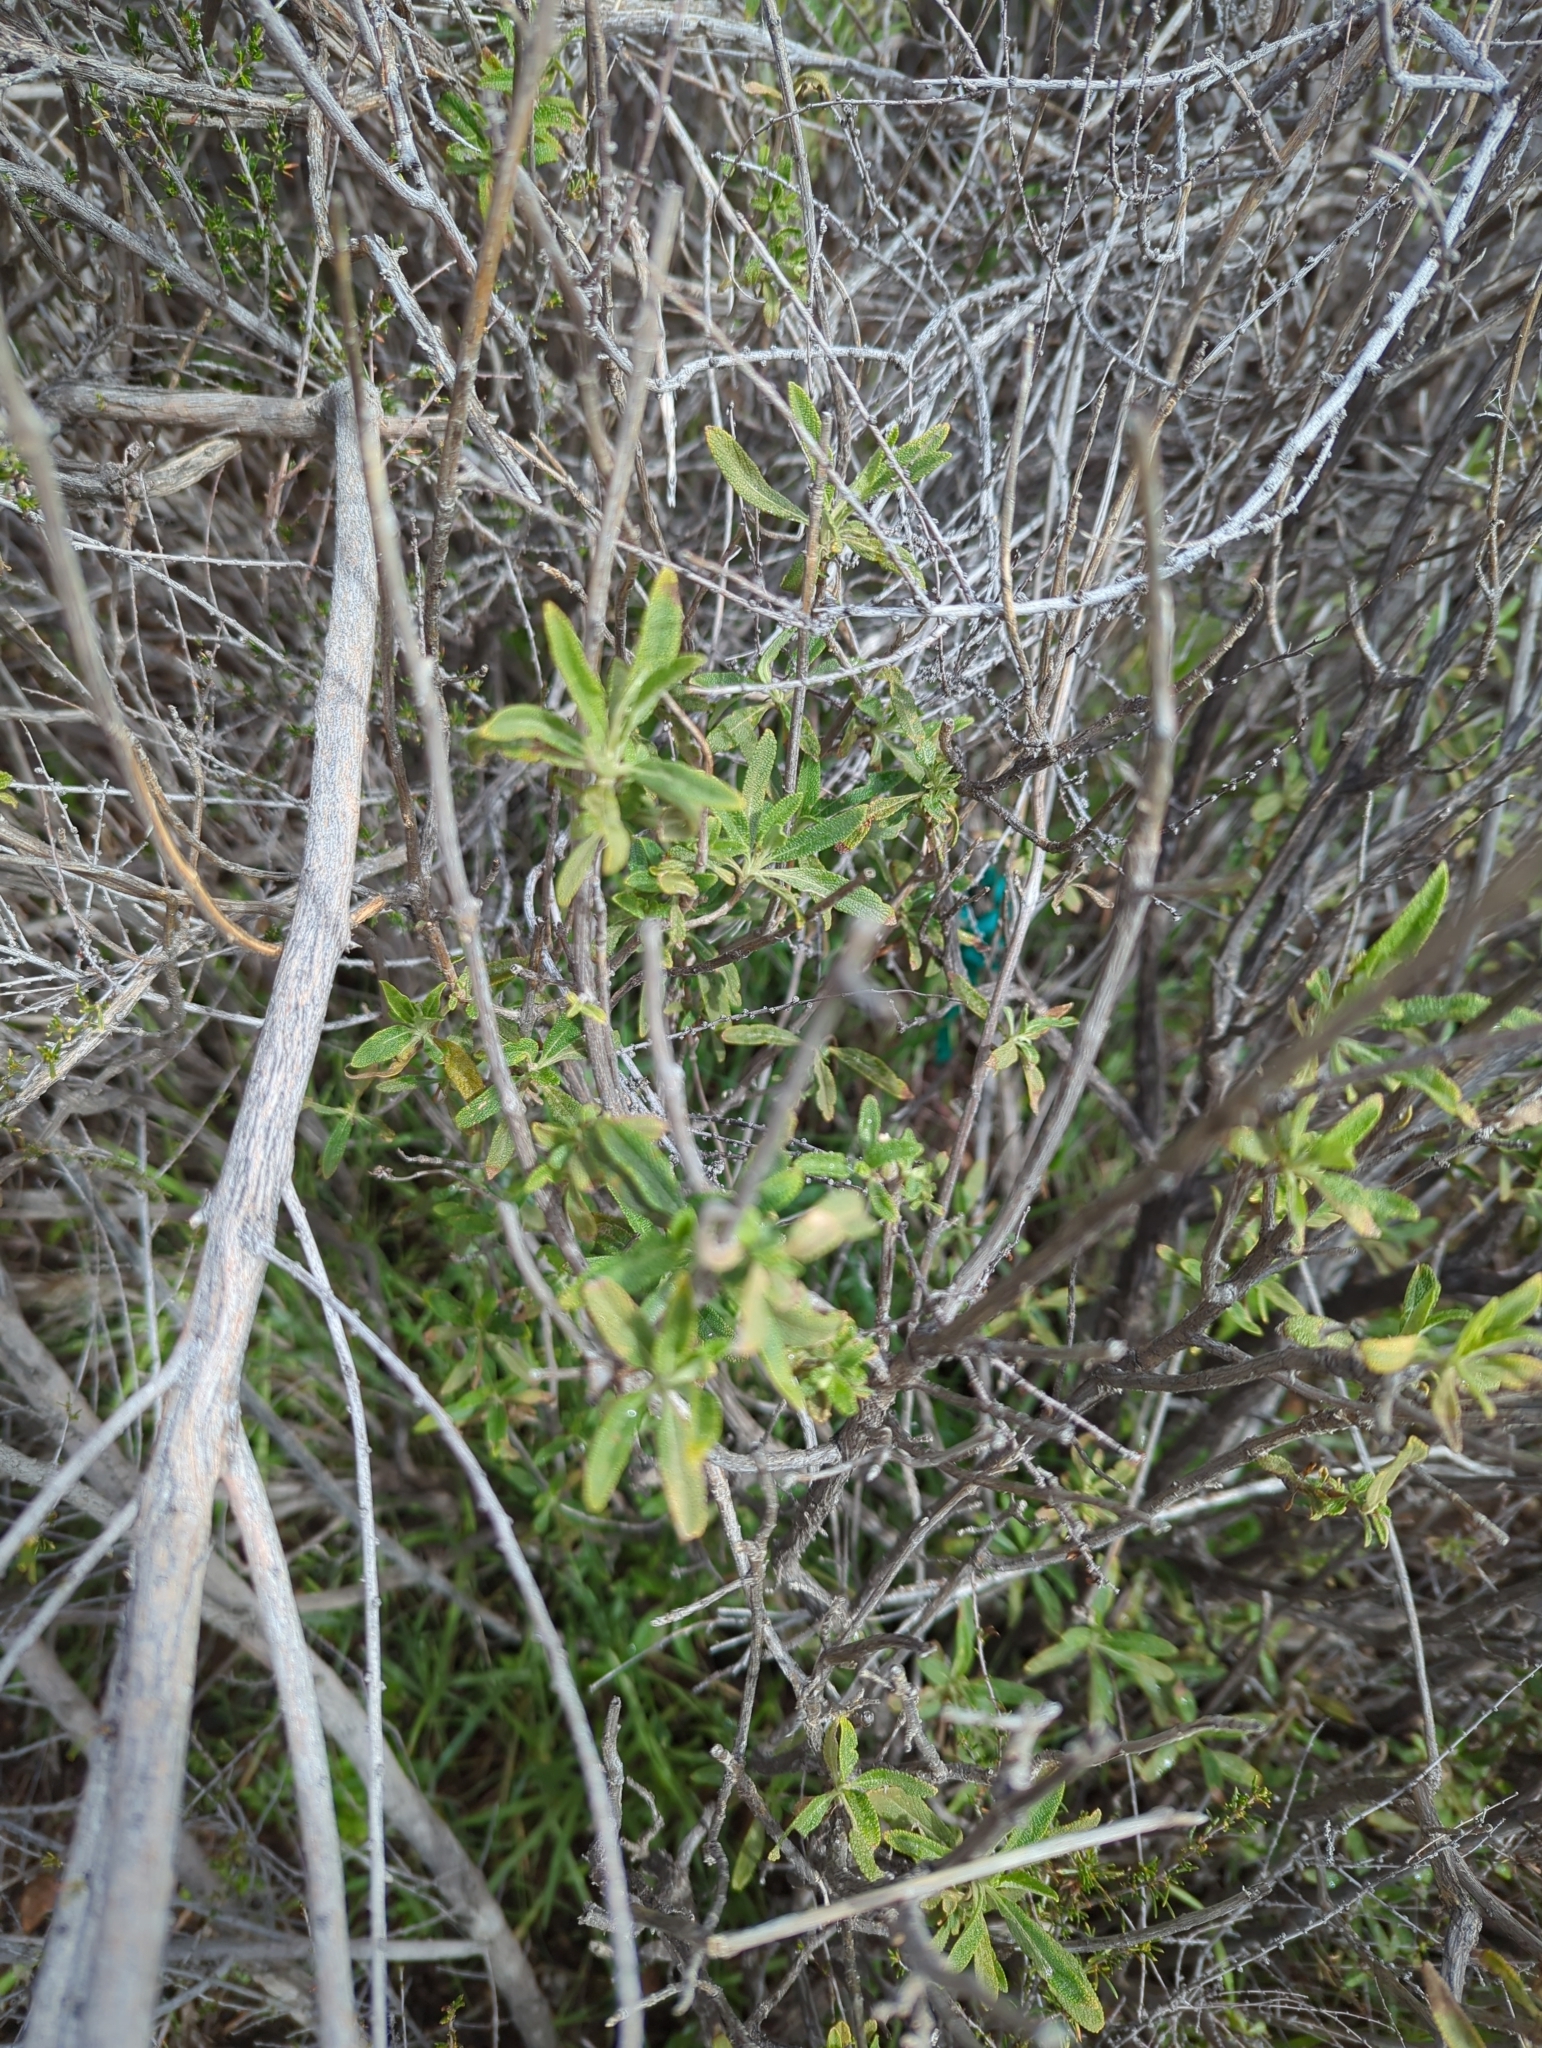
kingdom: Plantae
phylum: Tracheophyta
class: Magnoliopsida
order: Lamiales
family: Lamiaceae
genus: Salvia
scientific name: Salvia mellifera
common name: Black sage
